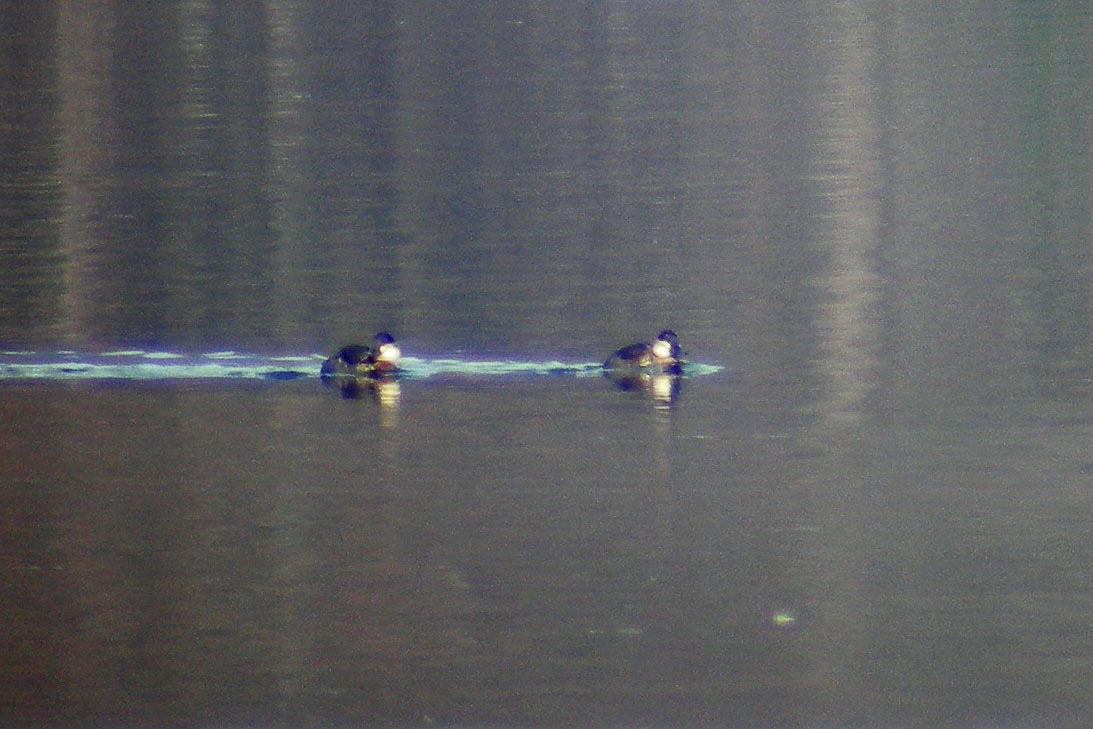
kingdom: Animalia
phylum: Chordata
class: Aves
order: Anseriformes
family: Anatidae
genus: Oxyura
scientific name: Oxyura jamaicensis
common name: Ruddy duck
